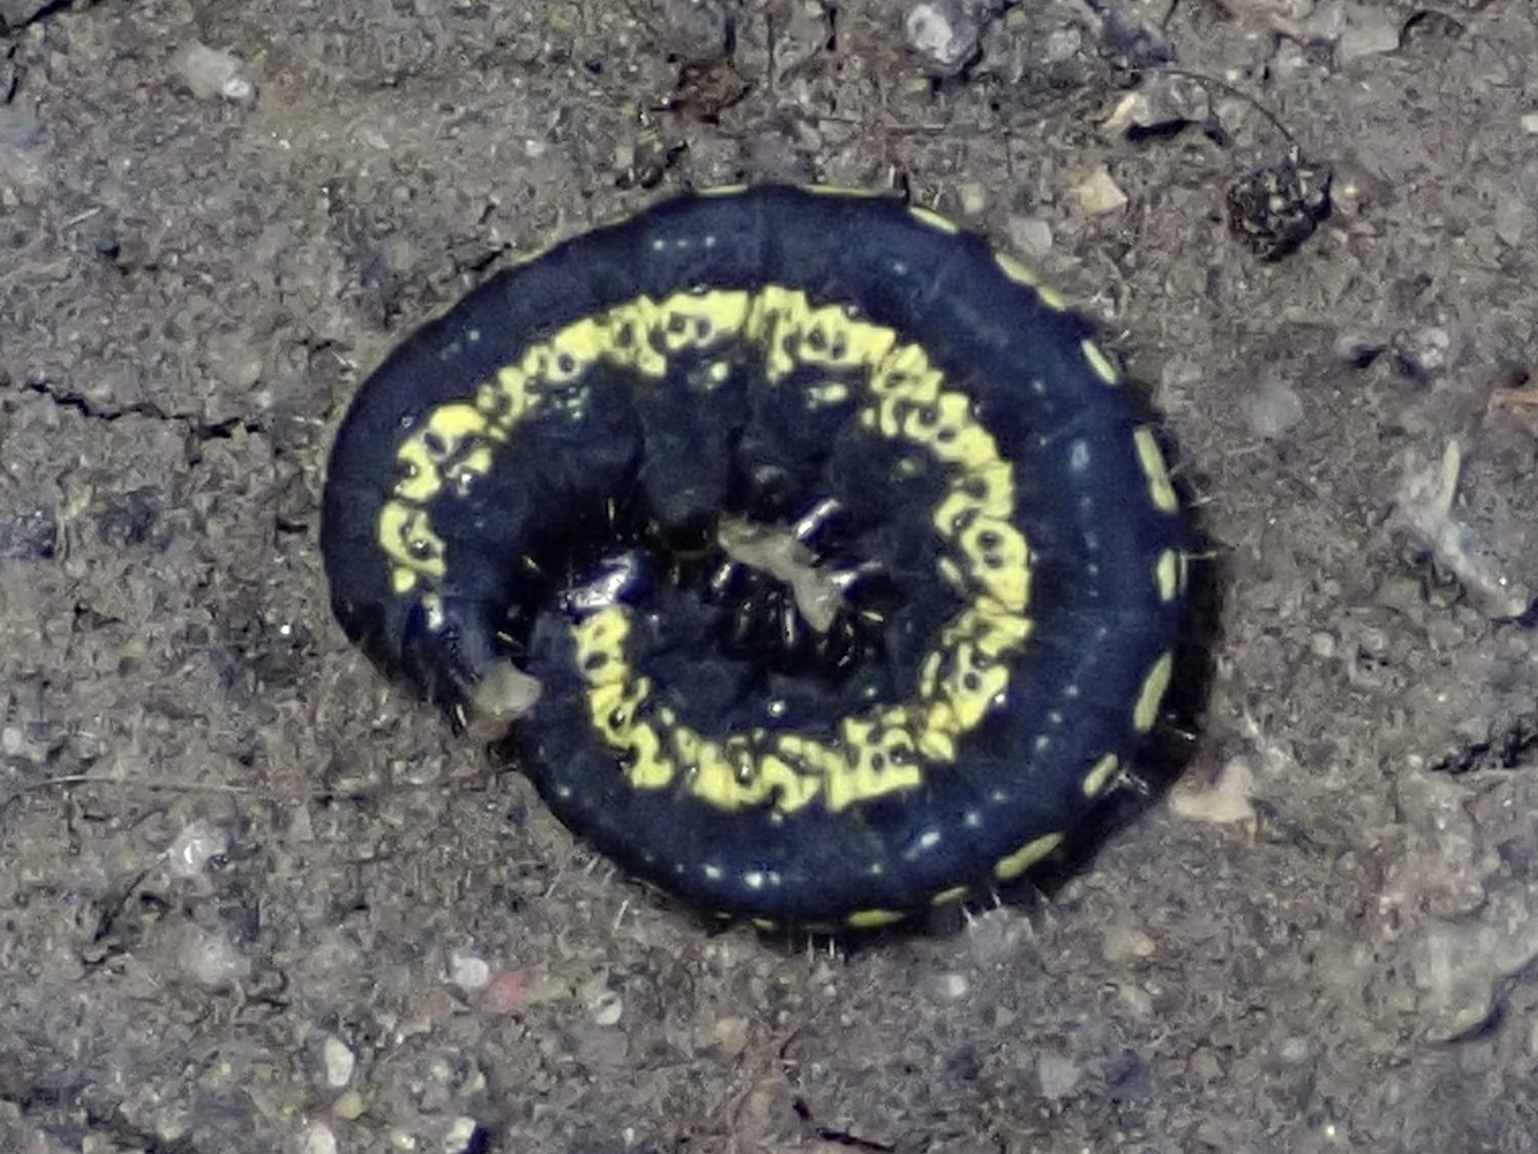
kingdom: Animalia
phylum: Arthropoda
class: Insecta
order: Lepidoptera
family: Noctuidae
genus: Zotheca
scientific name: Zotheca tranquilla
